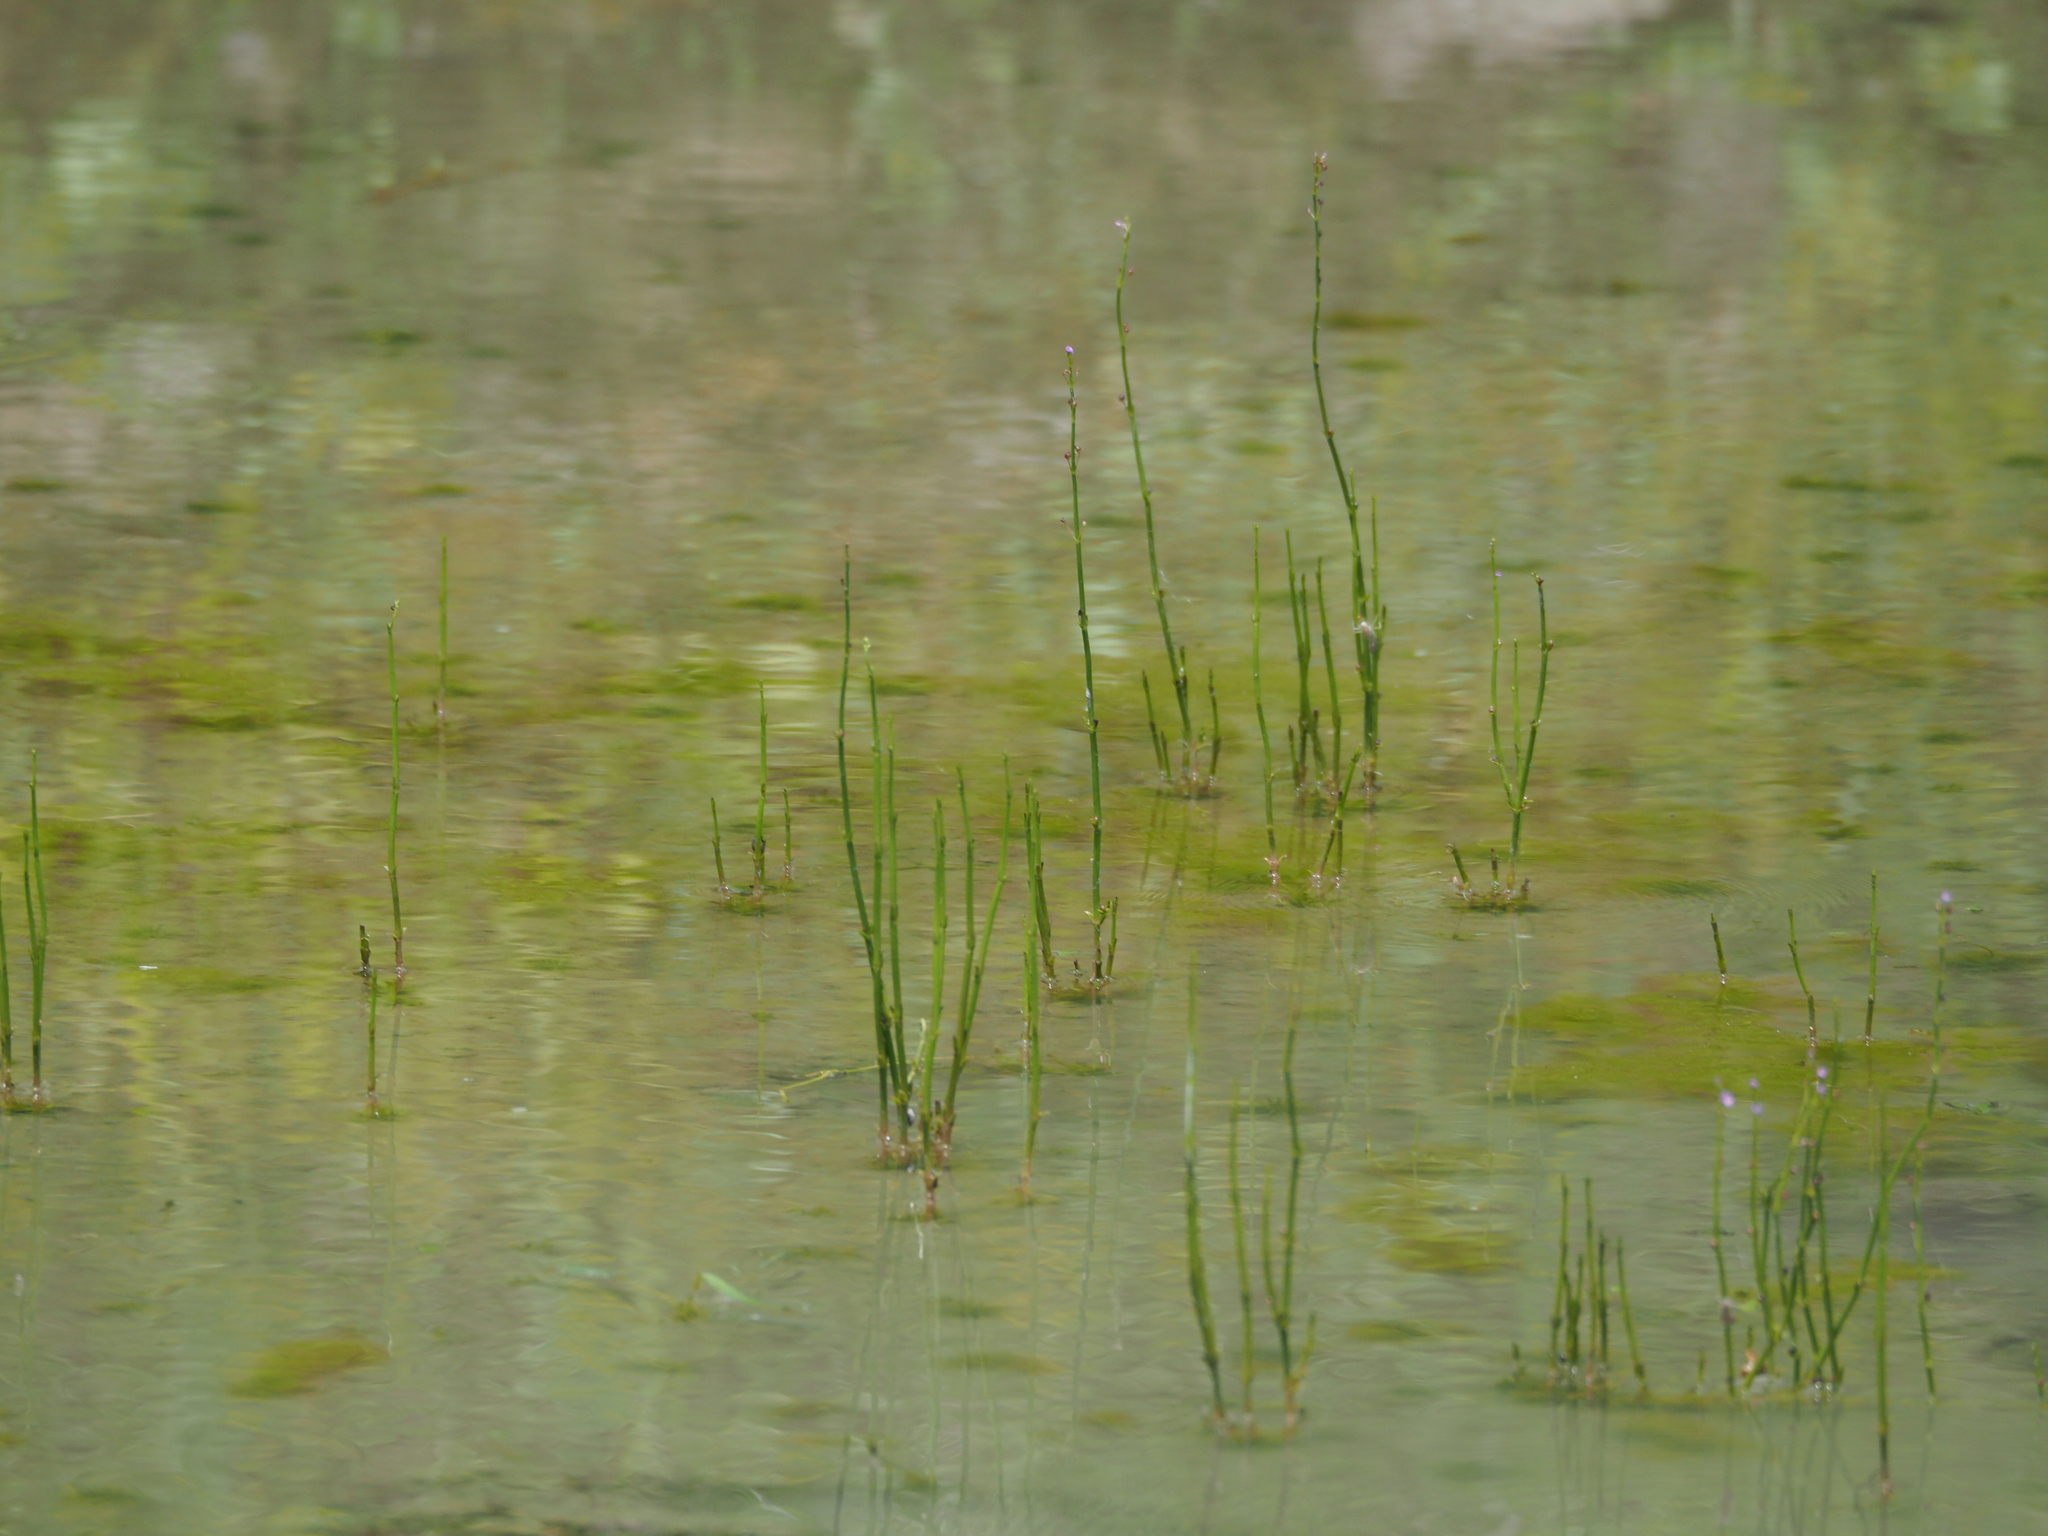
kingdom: Plantae
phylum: Tracheophyta
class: Magnoliopsida
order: Lamiales
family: Plantaginaceae
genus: Dopatrium
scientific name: Dopatrium junceum
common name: Horsefly's eye
